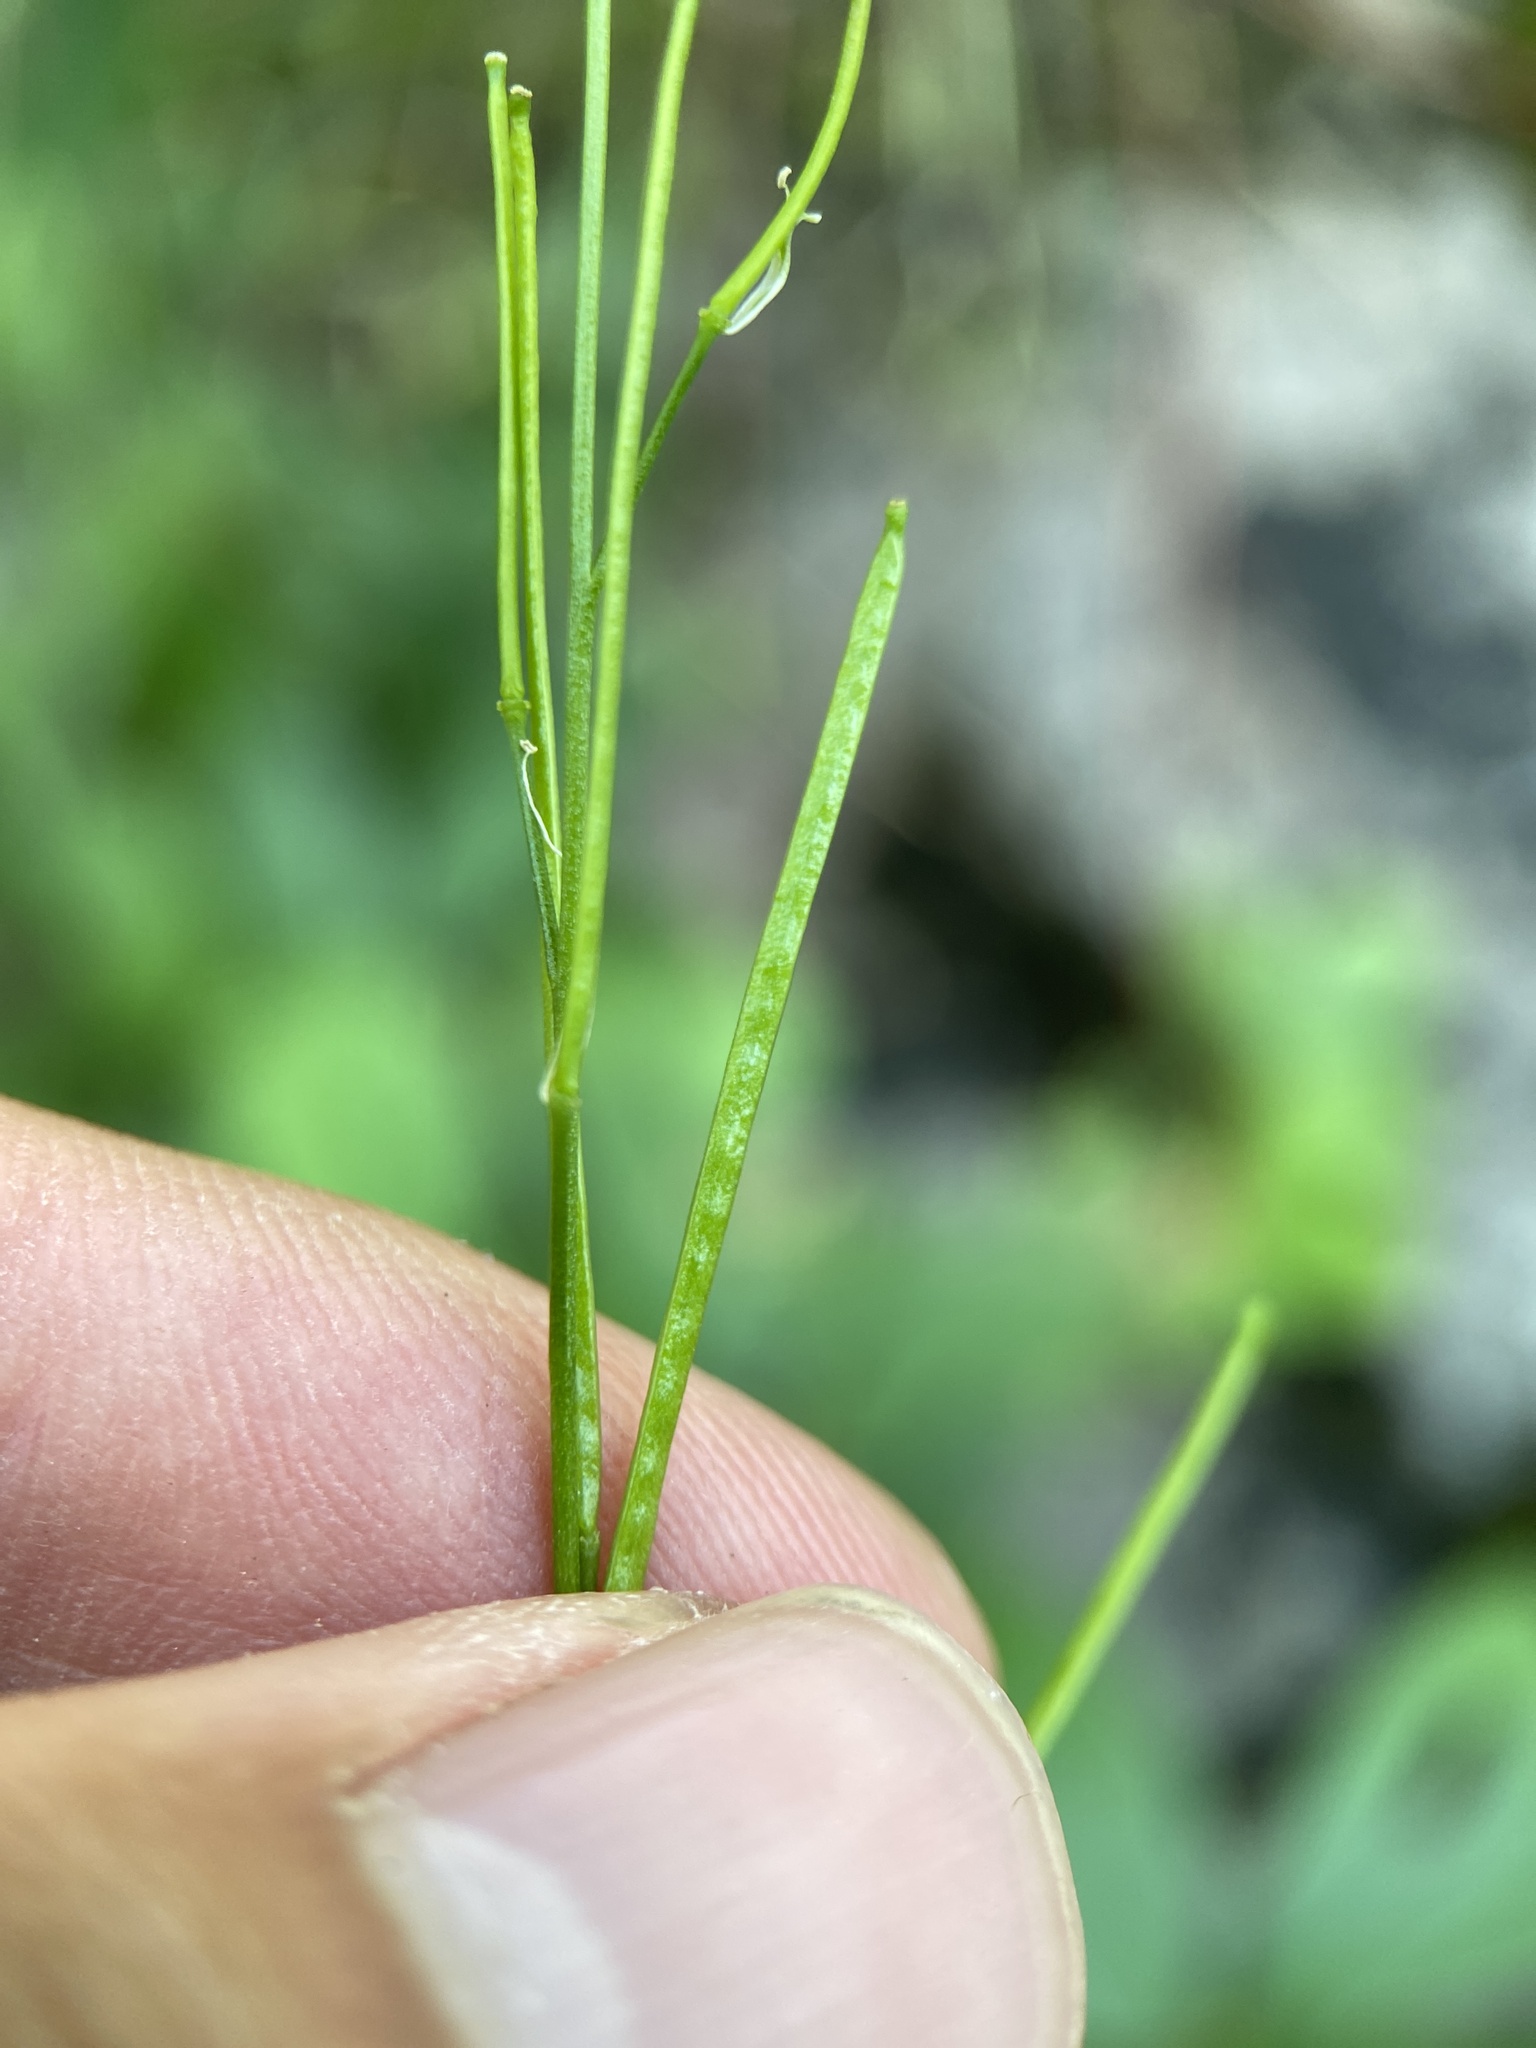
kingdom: Plantae
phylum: Tracheophyta
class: Magnoliopsida
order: Brassicales
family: Brassicaceae
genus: Arabis
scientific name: Arabis pycnocarpa
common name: Blushing rockcress
